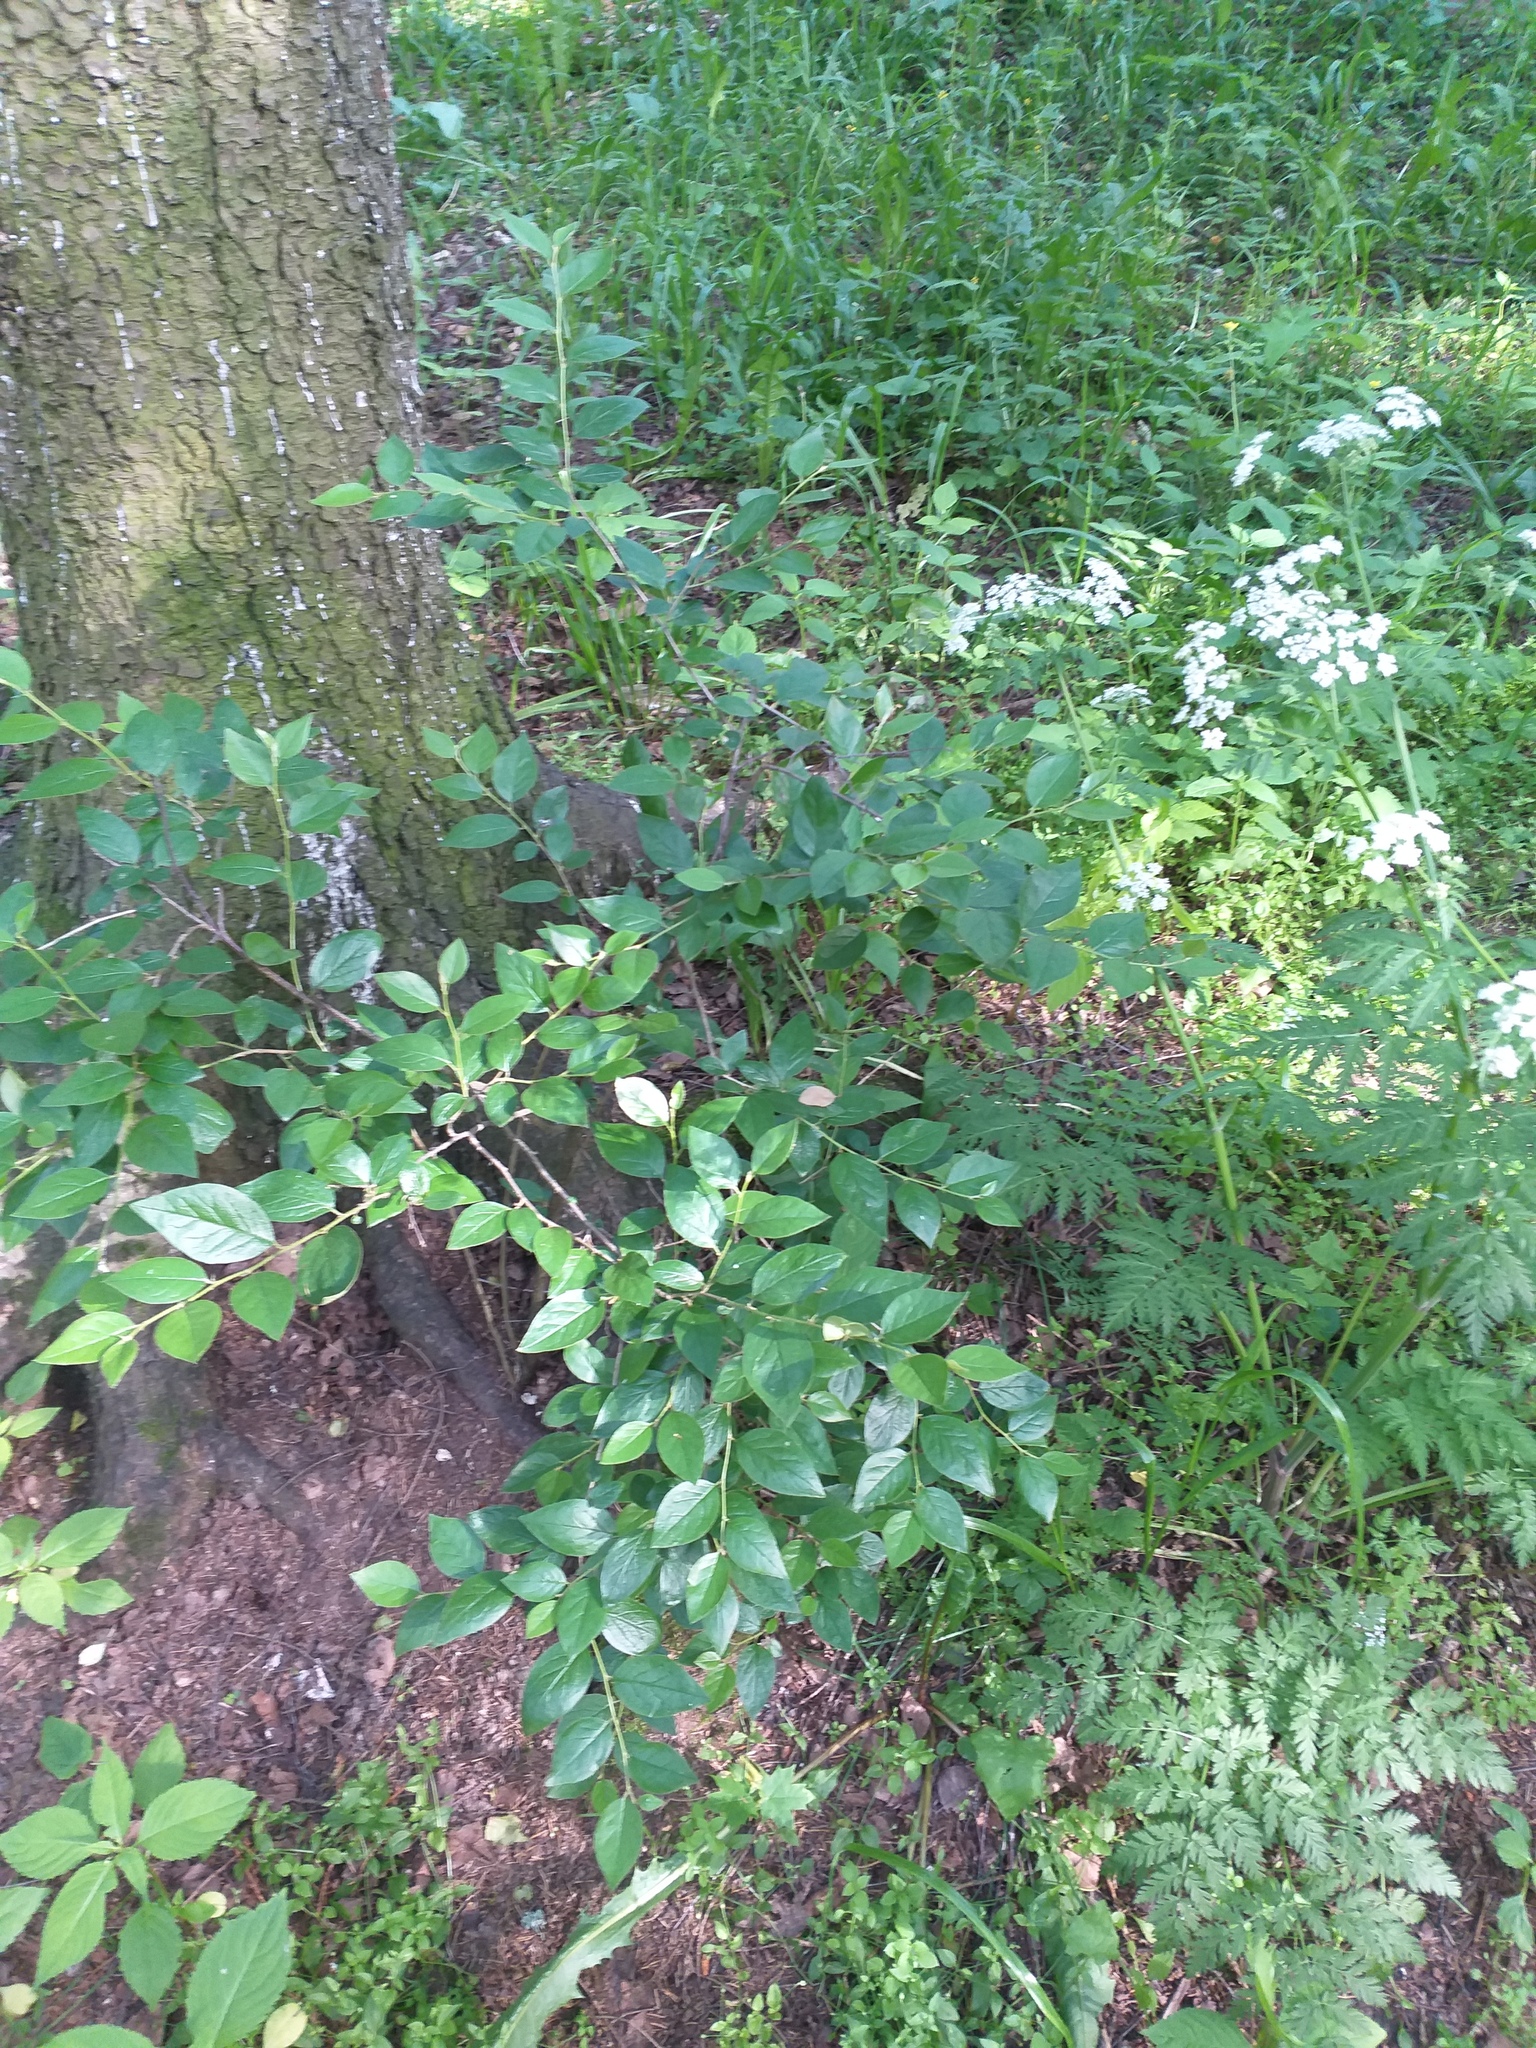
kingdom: Plantae
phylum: Tracheophyta
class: Magnoliopsida
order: Rosales
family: Rosaceae
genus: Cotoneaster
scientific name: Cotoneaster acutifolius
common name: Peking cotoneaster
